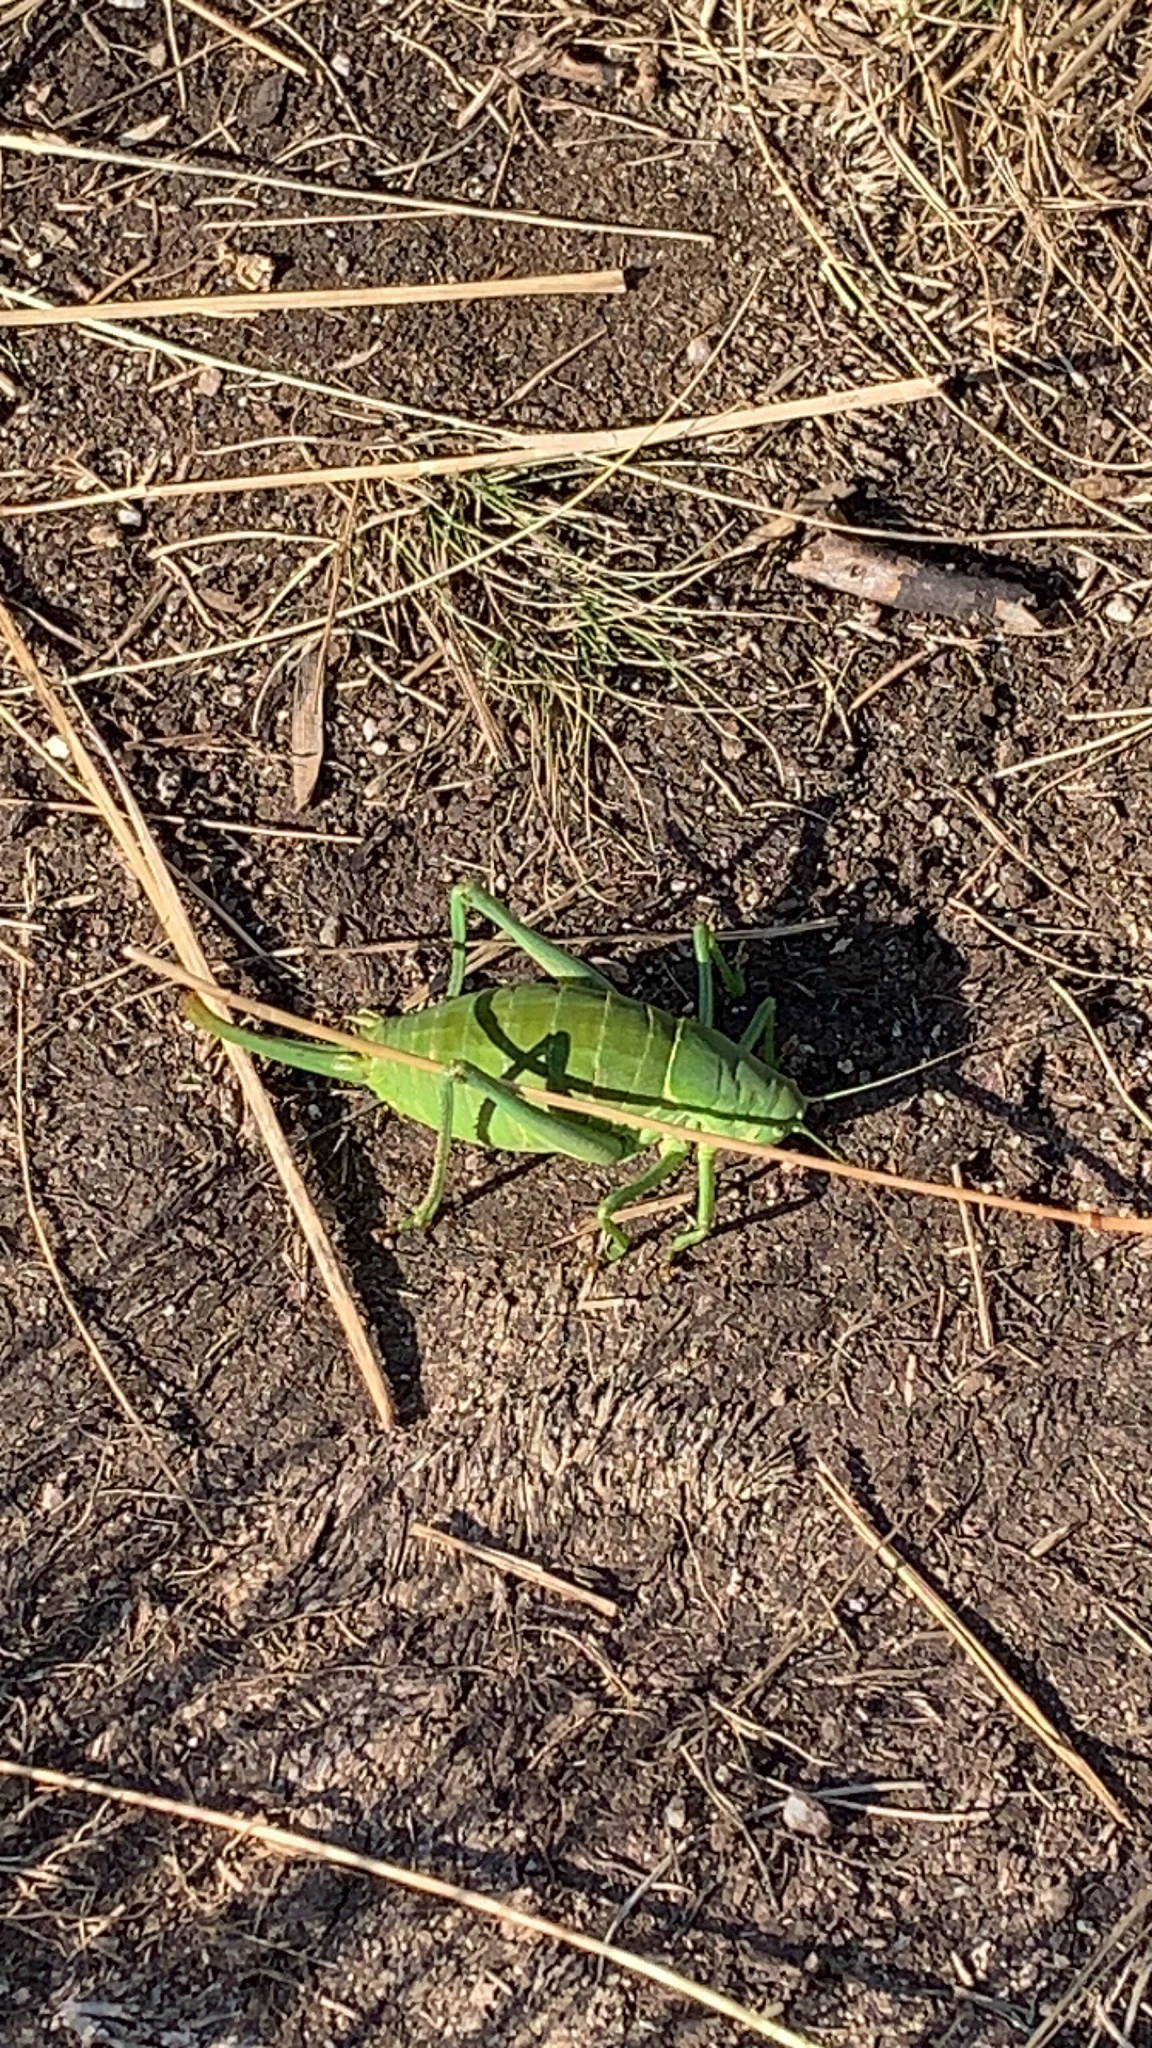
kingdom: Animalia
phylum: Arthropoda
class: Insecta
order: Orthoptera
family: Tettigoniidae
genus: Polysarcus
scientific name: Polysarcus denticauda
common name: Large saw-tailed bush-cricket
